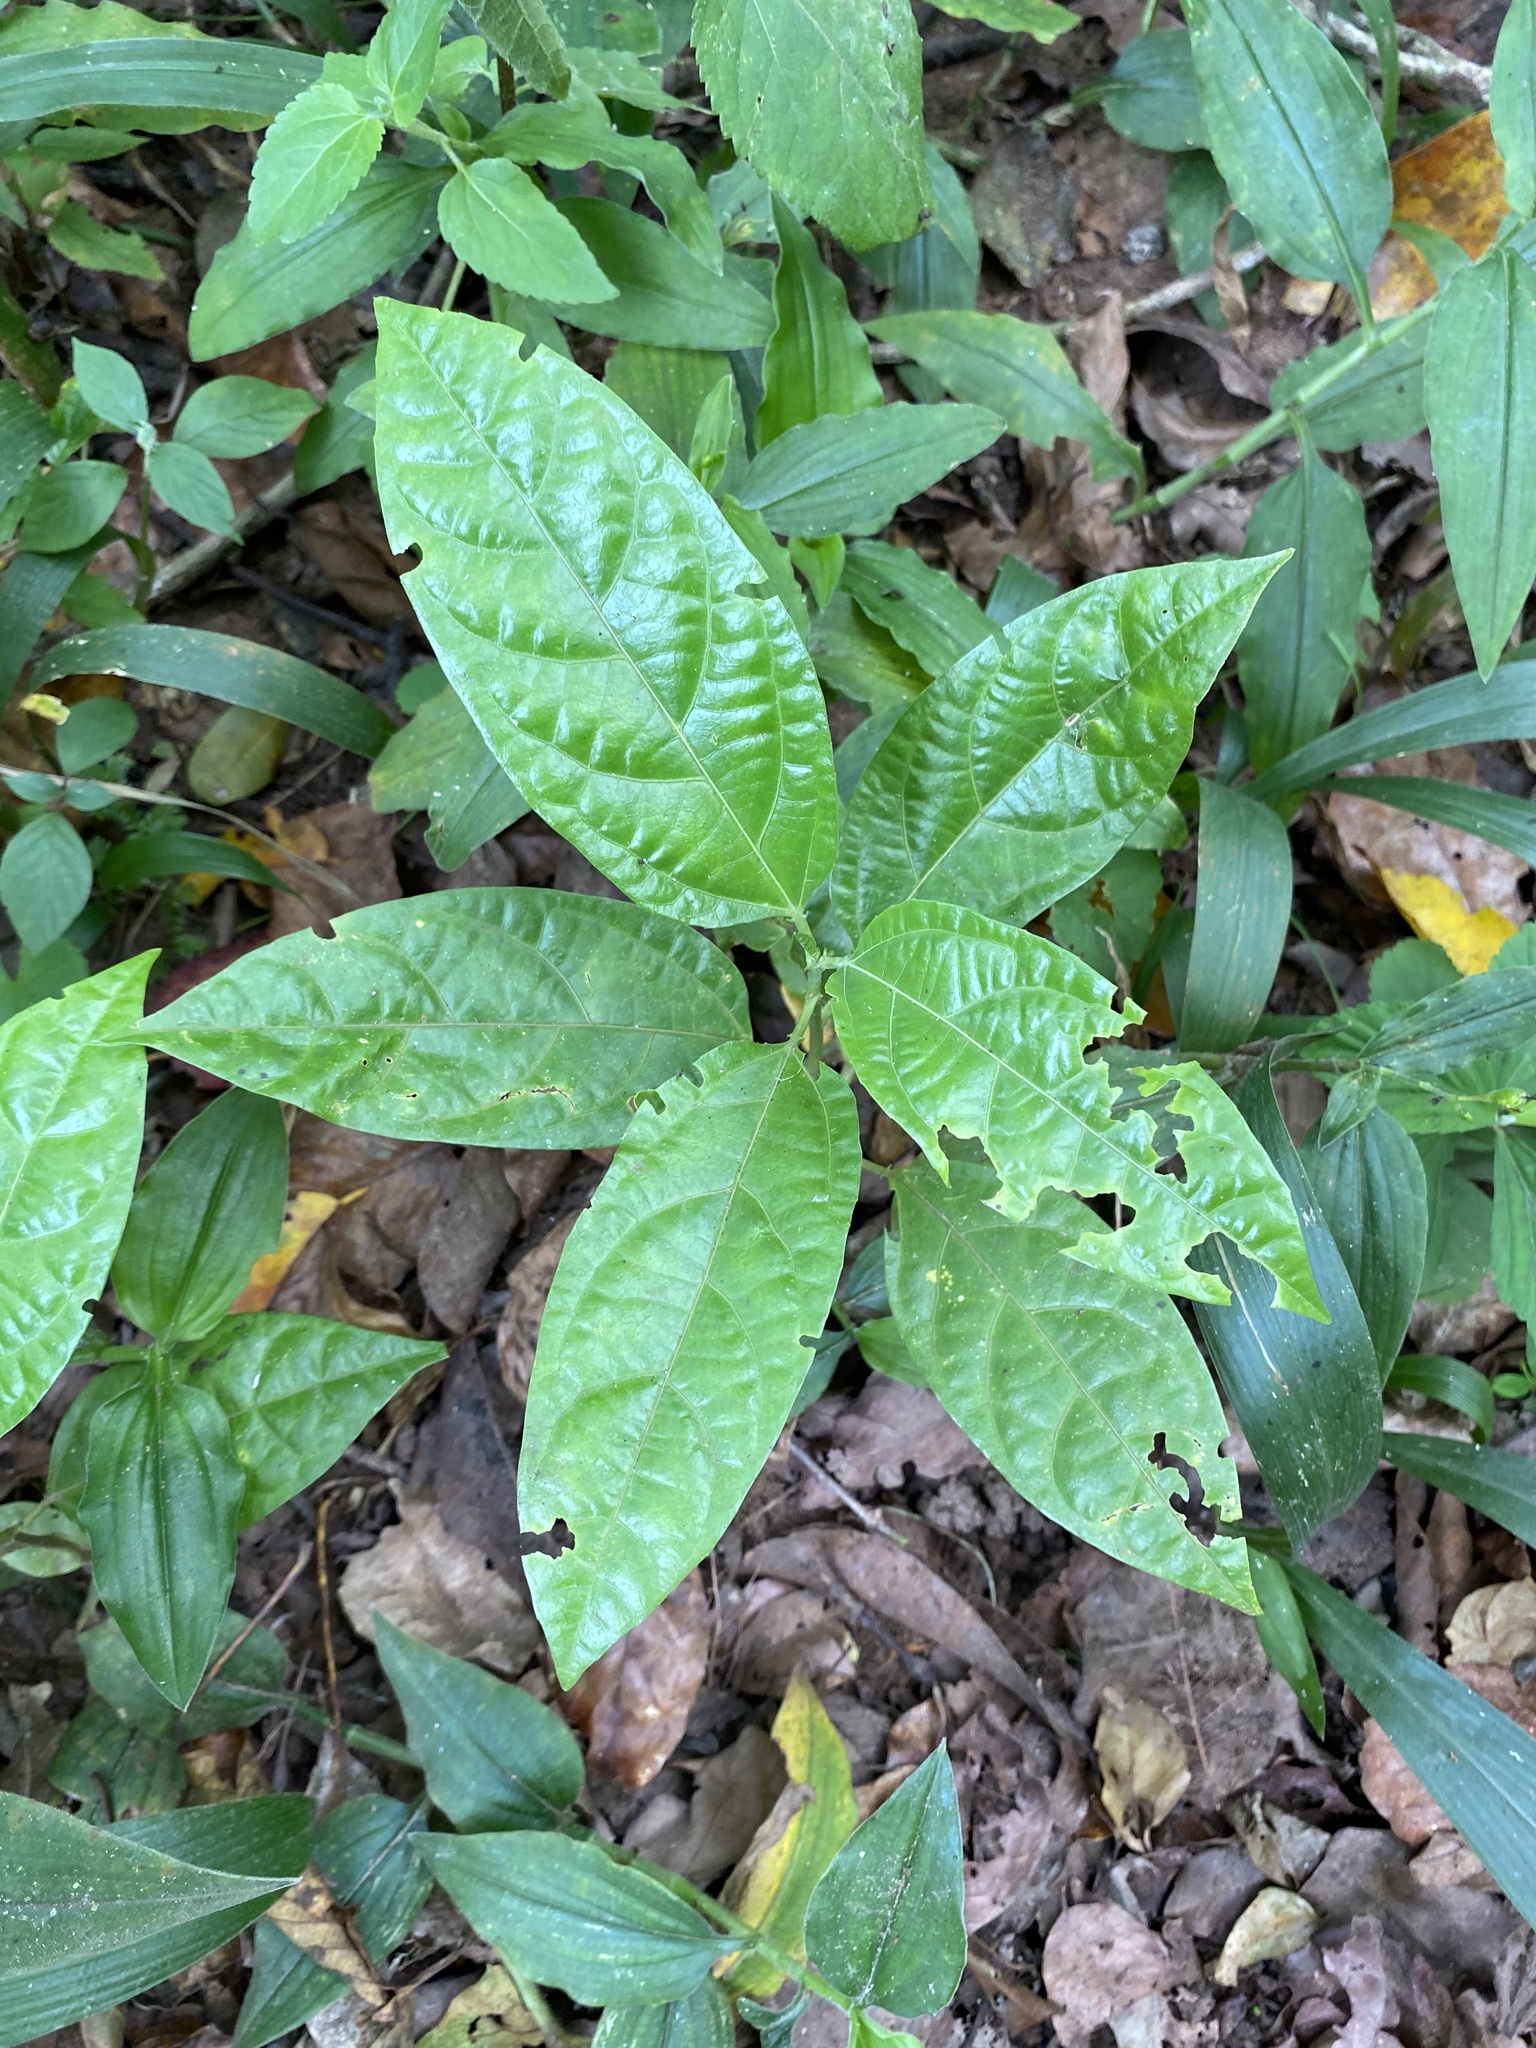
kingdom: Plantae
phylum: Tracheophyta
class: Magnoliopsida
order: Malpighiales
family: Passifloraceae
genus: Passiflora
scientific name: Passiflora edulis
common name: Purple granadilla
